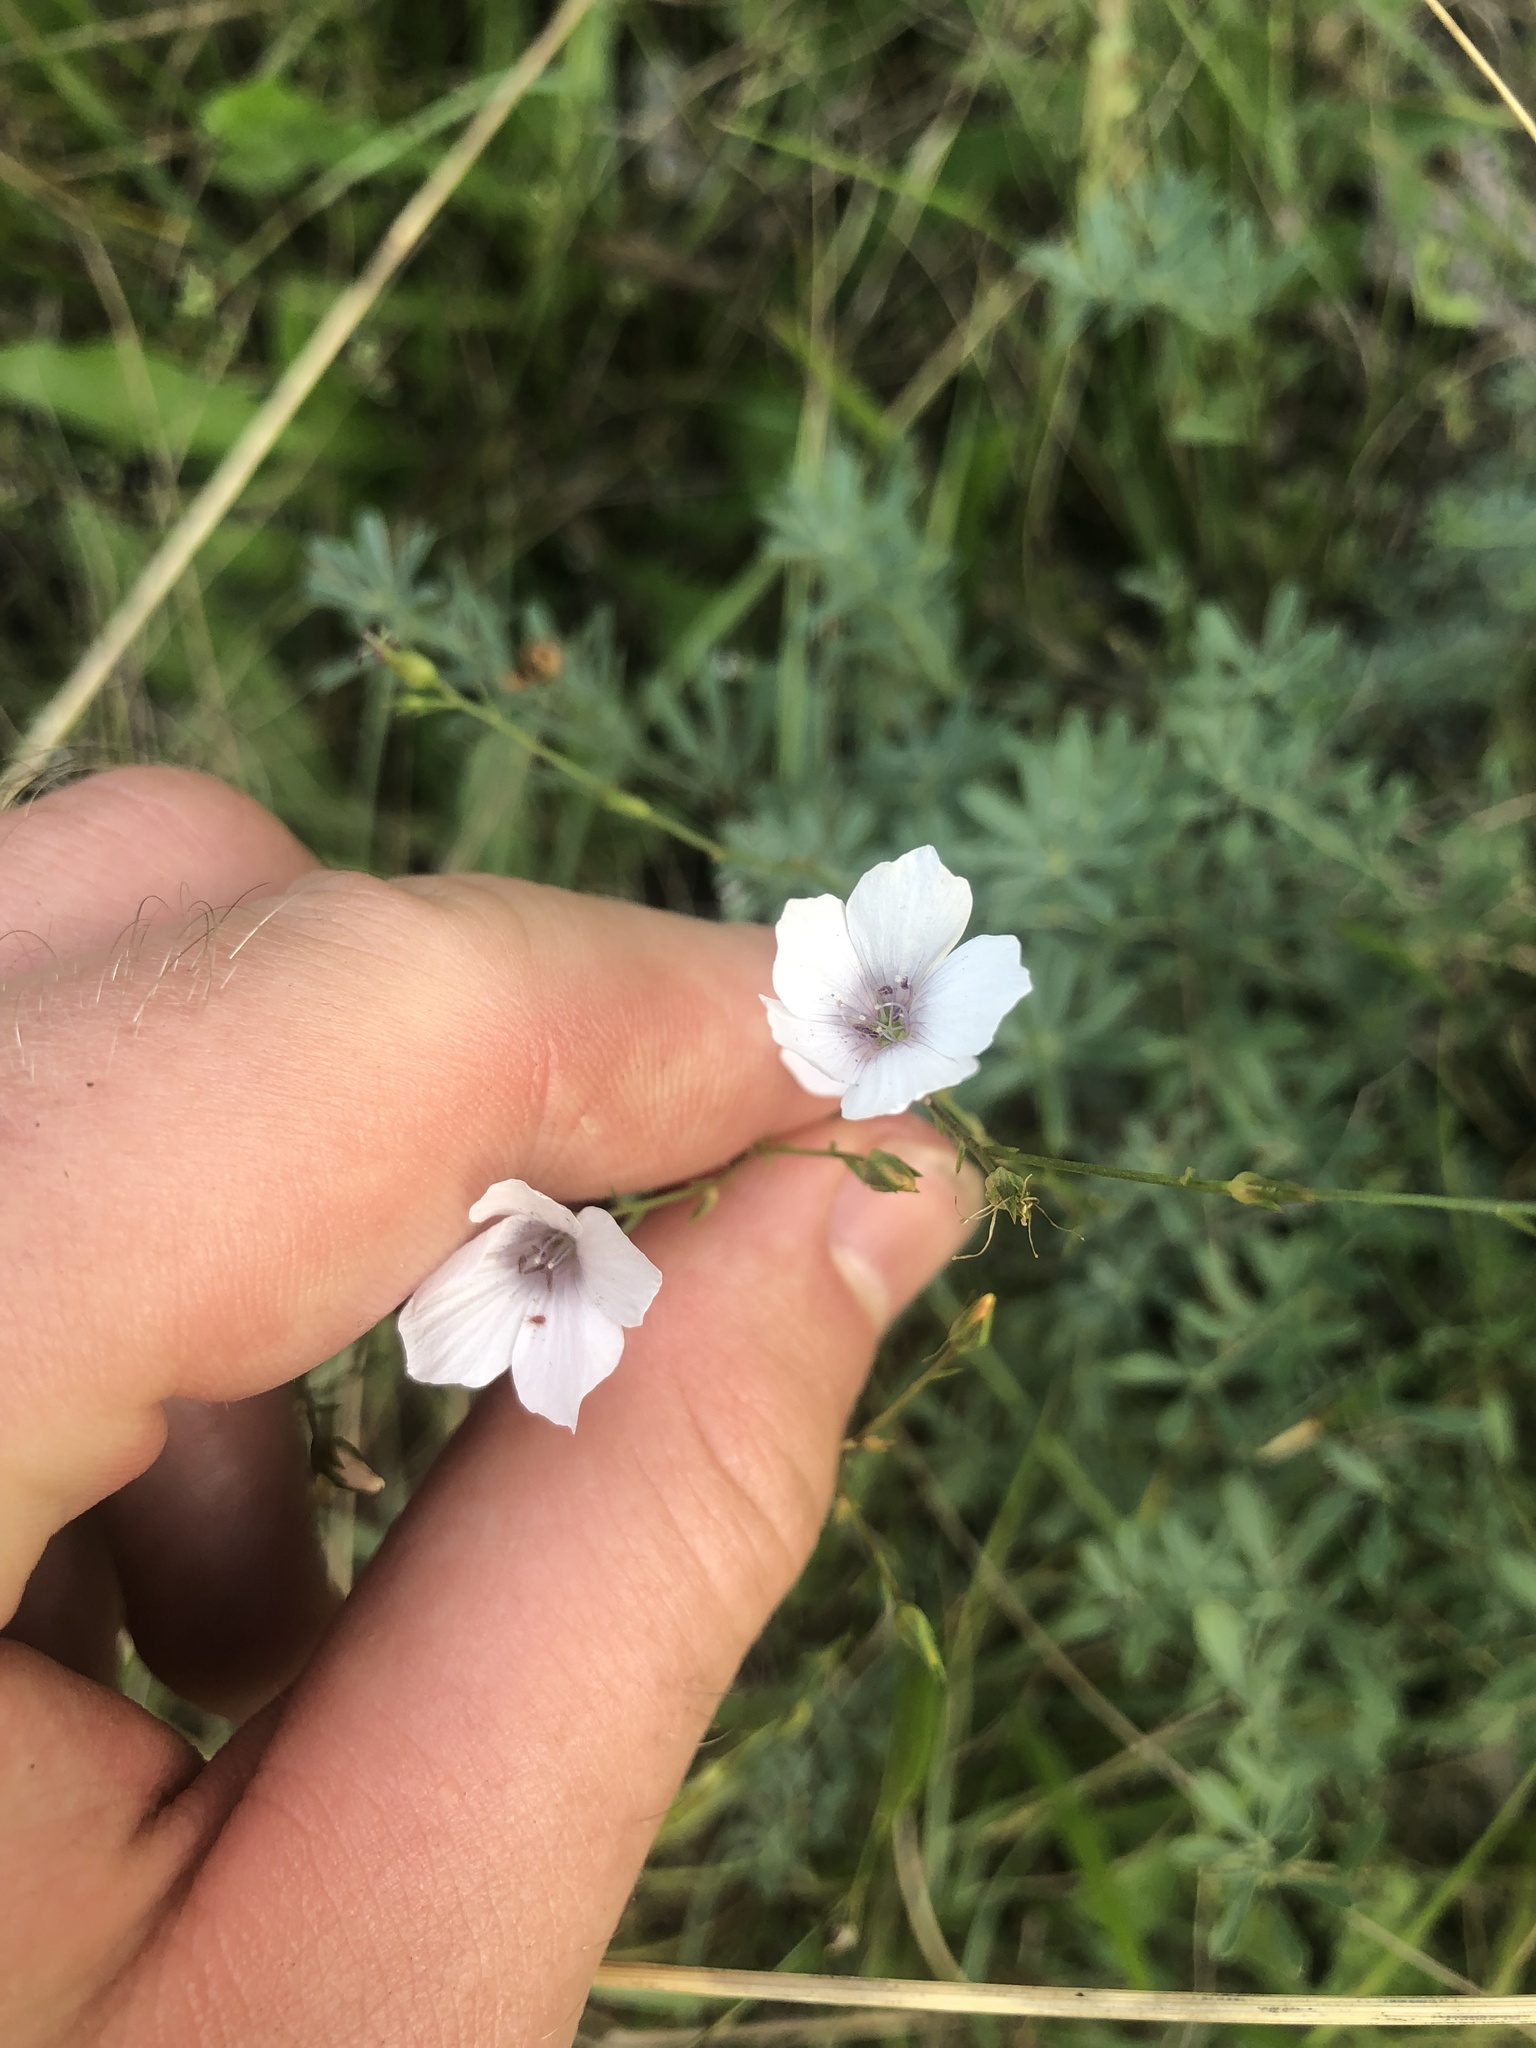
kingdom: Plantae
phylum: Tracheophyta
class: Magnoliopsida
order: Malpighiales
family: Linaceae
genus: Linum
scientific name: Linum tenuifolium
